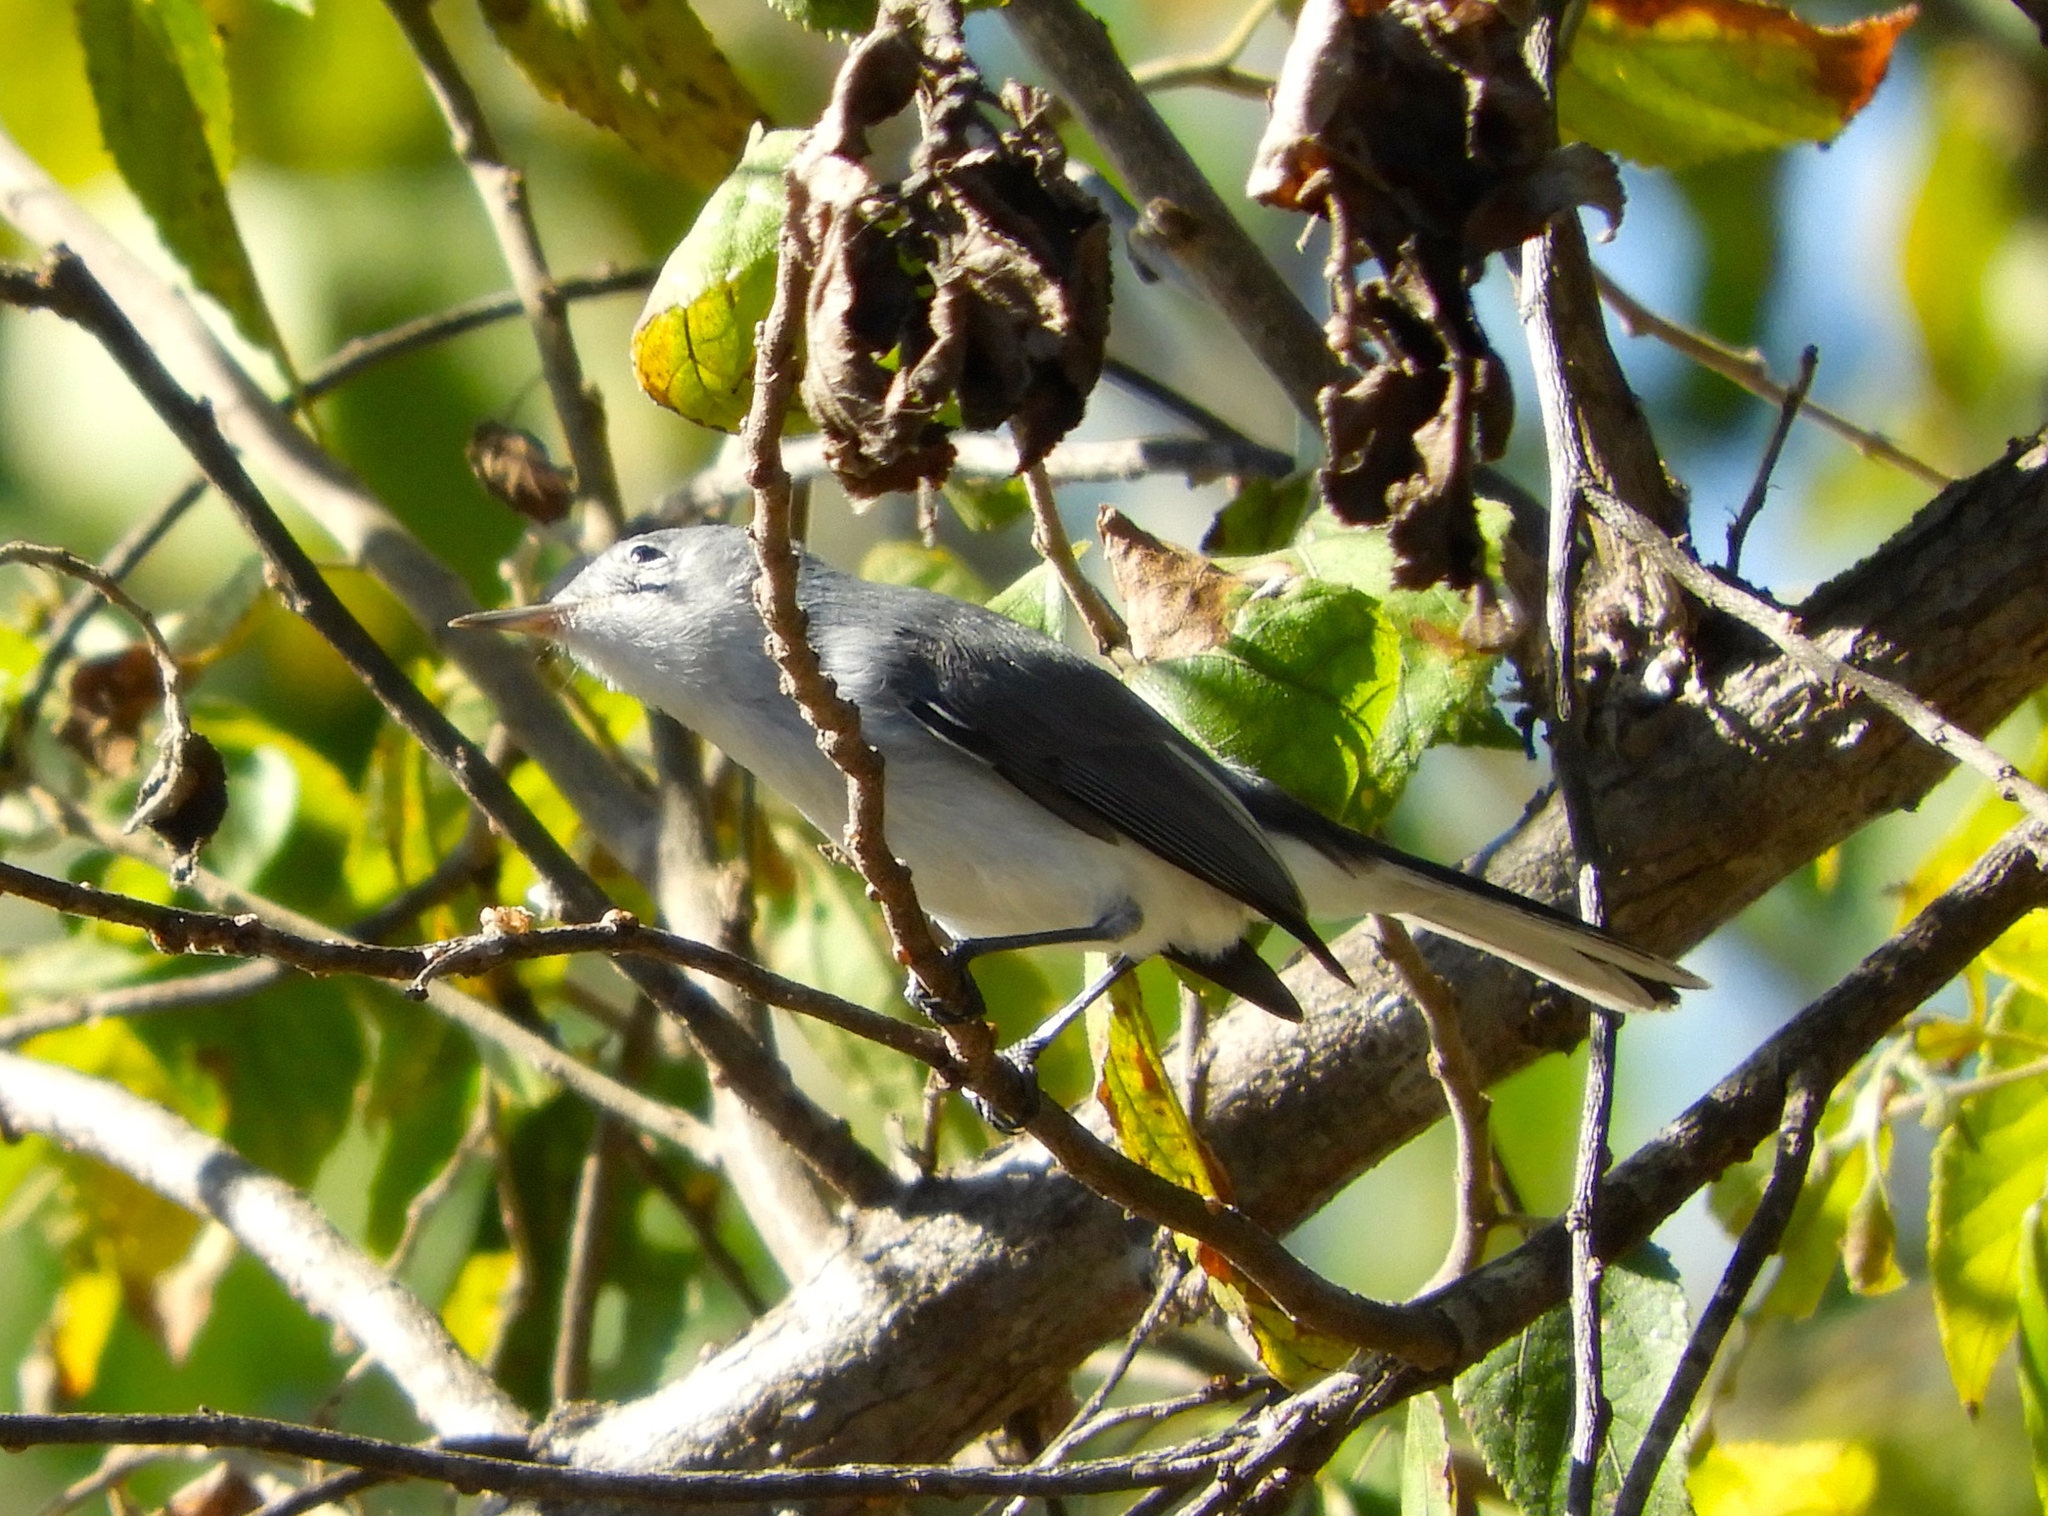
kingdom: Animalia
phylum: Chordata
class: Aves
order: Passeriformes
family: Polioptilidae
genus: Polioptila
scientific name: Polioptila
